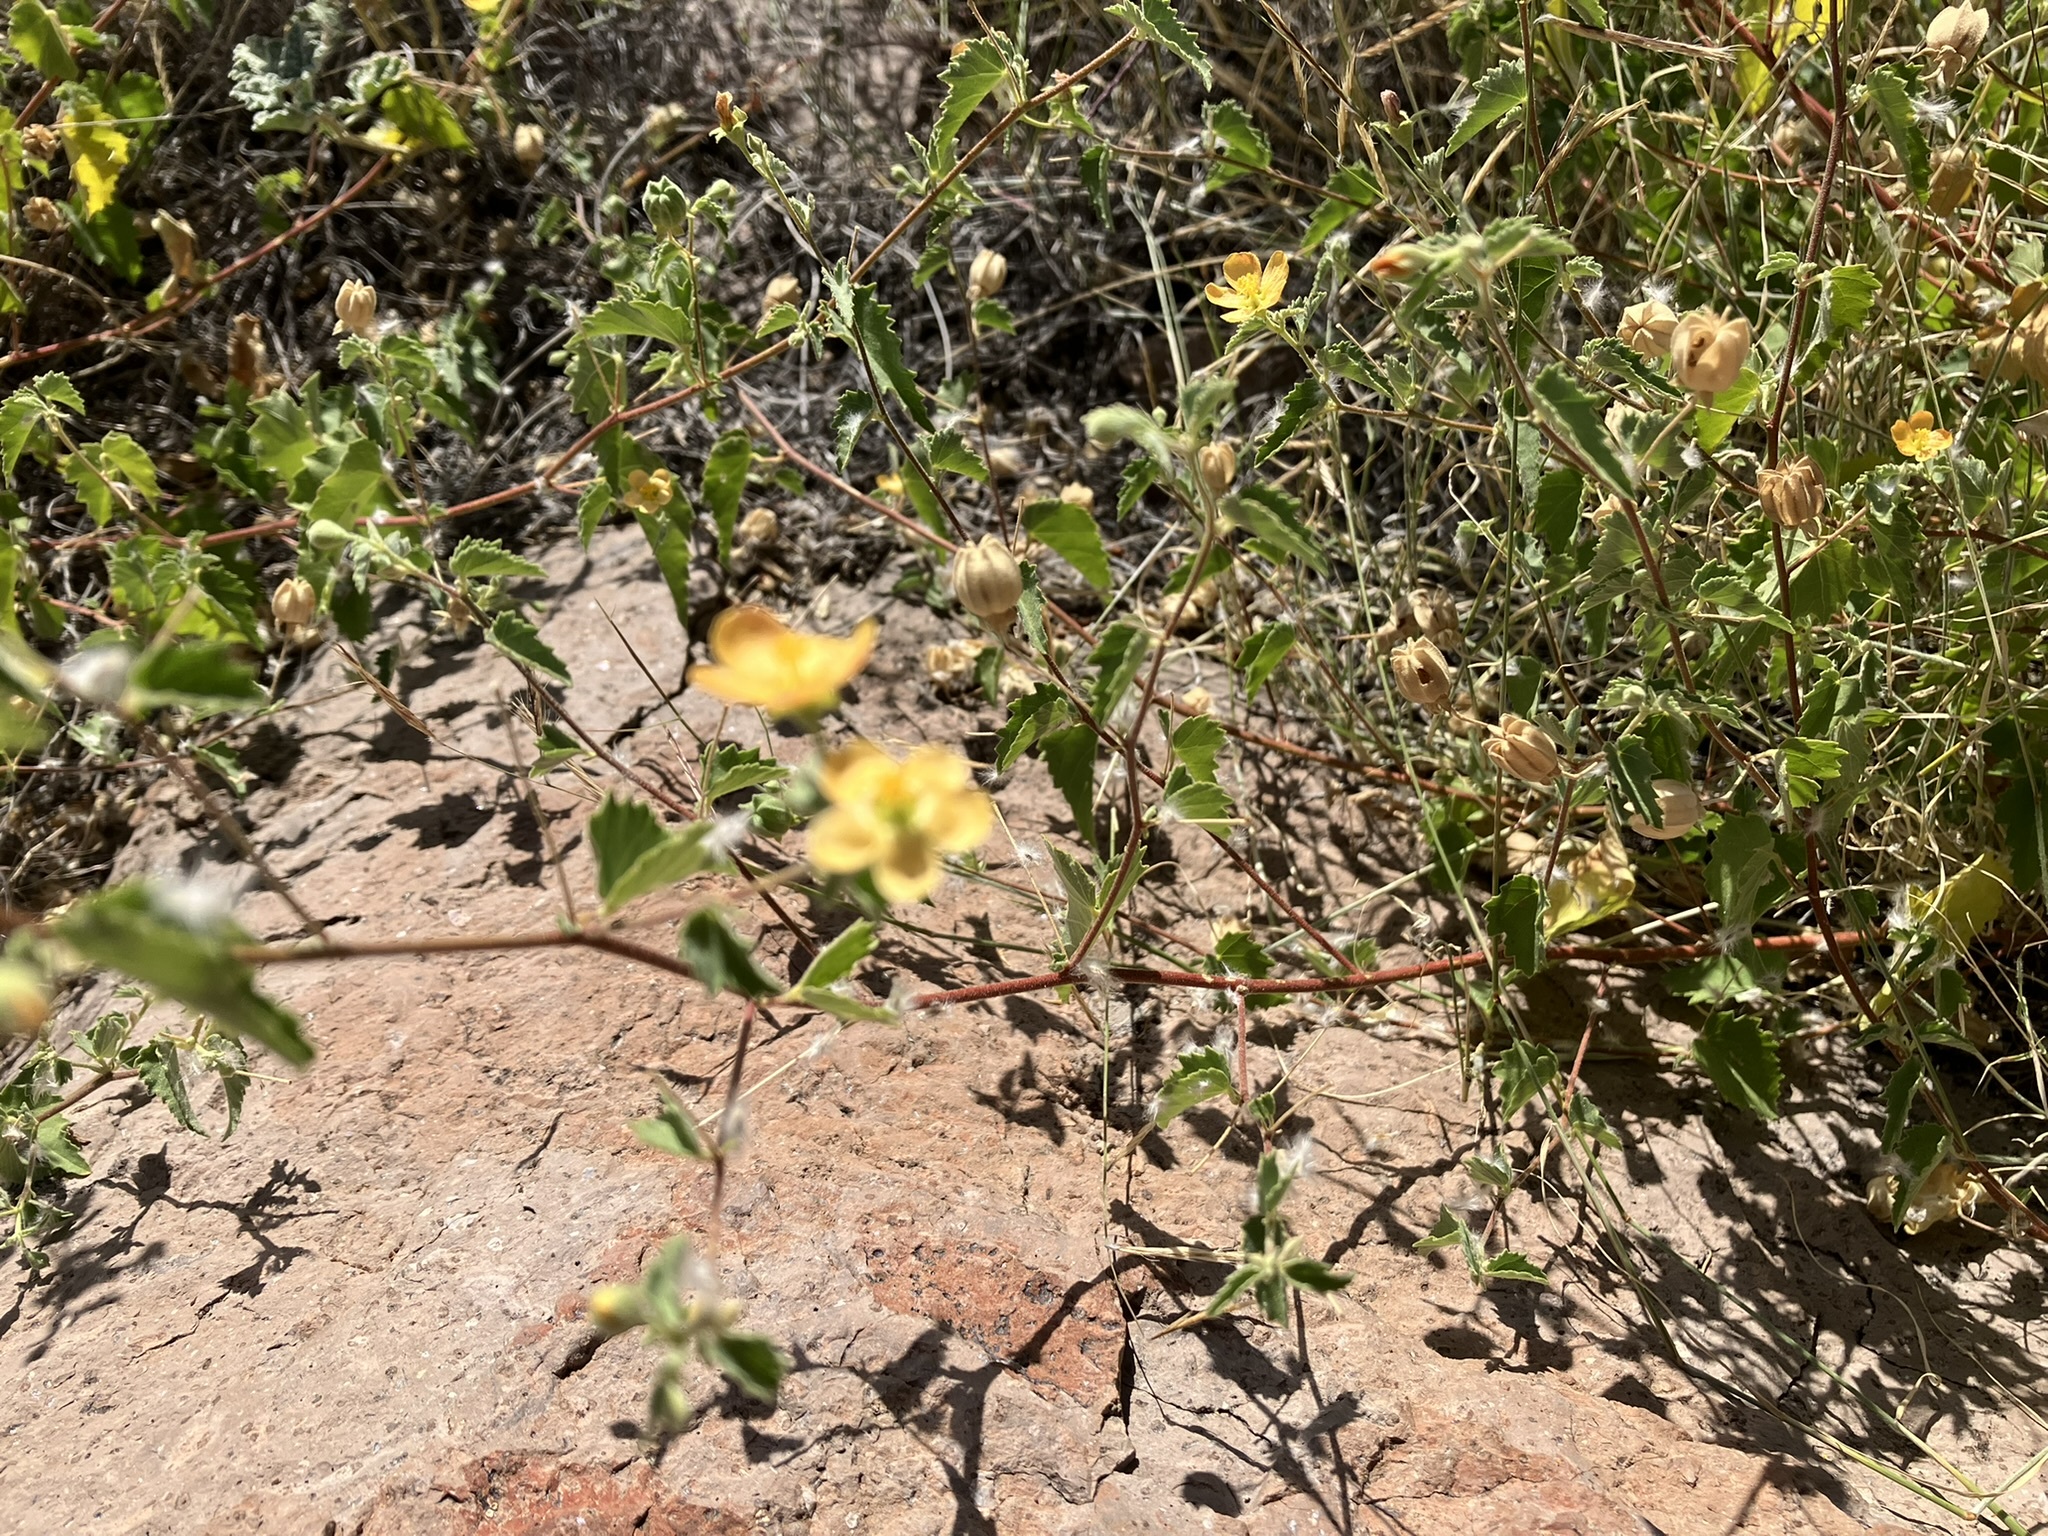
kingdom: Plantae
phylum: Tracheophyta
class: Magnoliopsida
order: Malvales
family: Malvaceae
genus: Abutilon
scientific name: Abutilon parvulum
